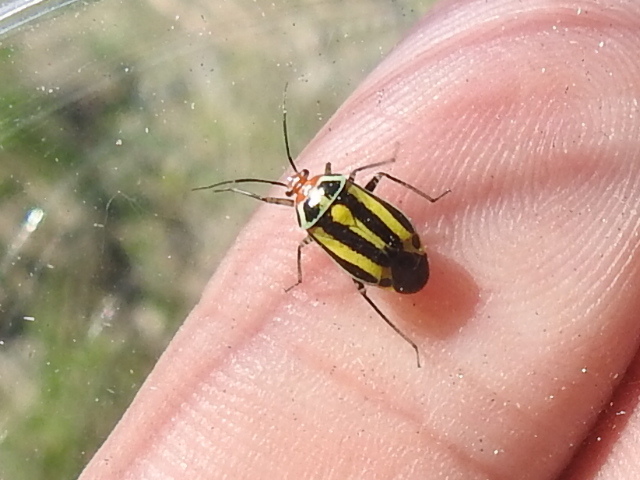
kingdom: Animalia
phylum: Arthropoda
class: Insecta
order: Hemiptera
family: Miridae
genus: Poecilocapsus
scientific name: Poecilocapsus lineatus
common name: Four-lined plant bug
